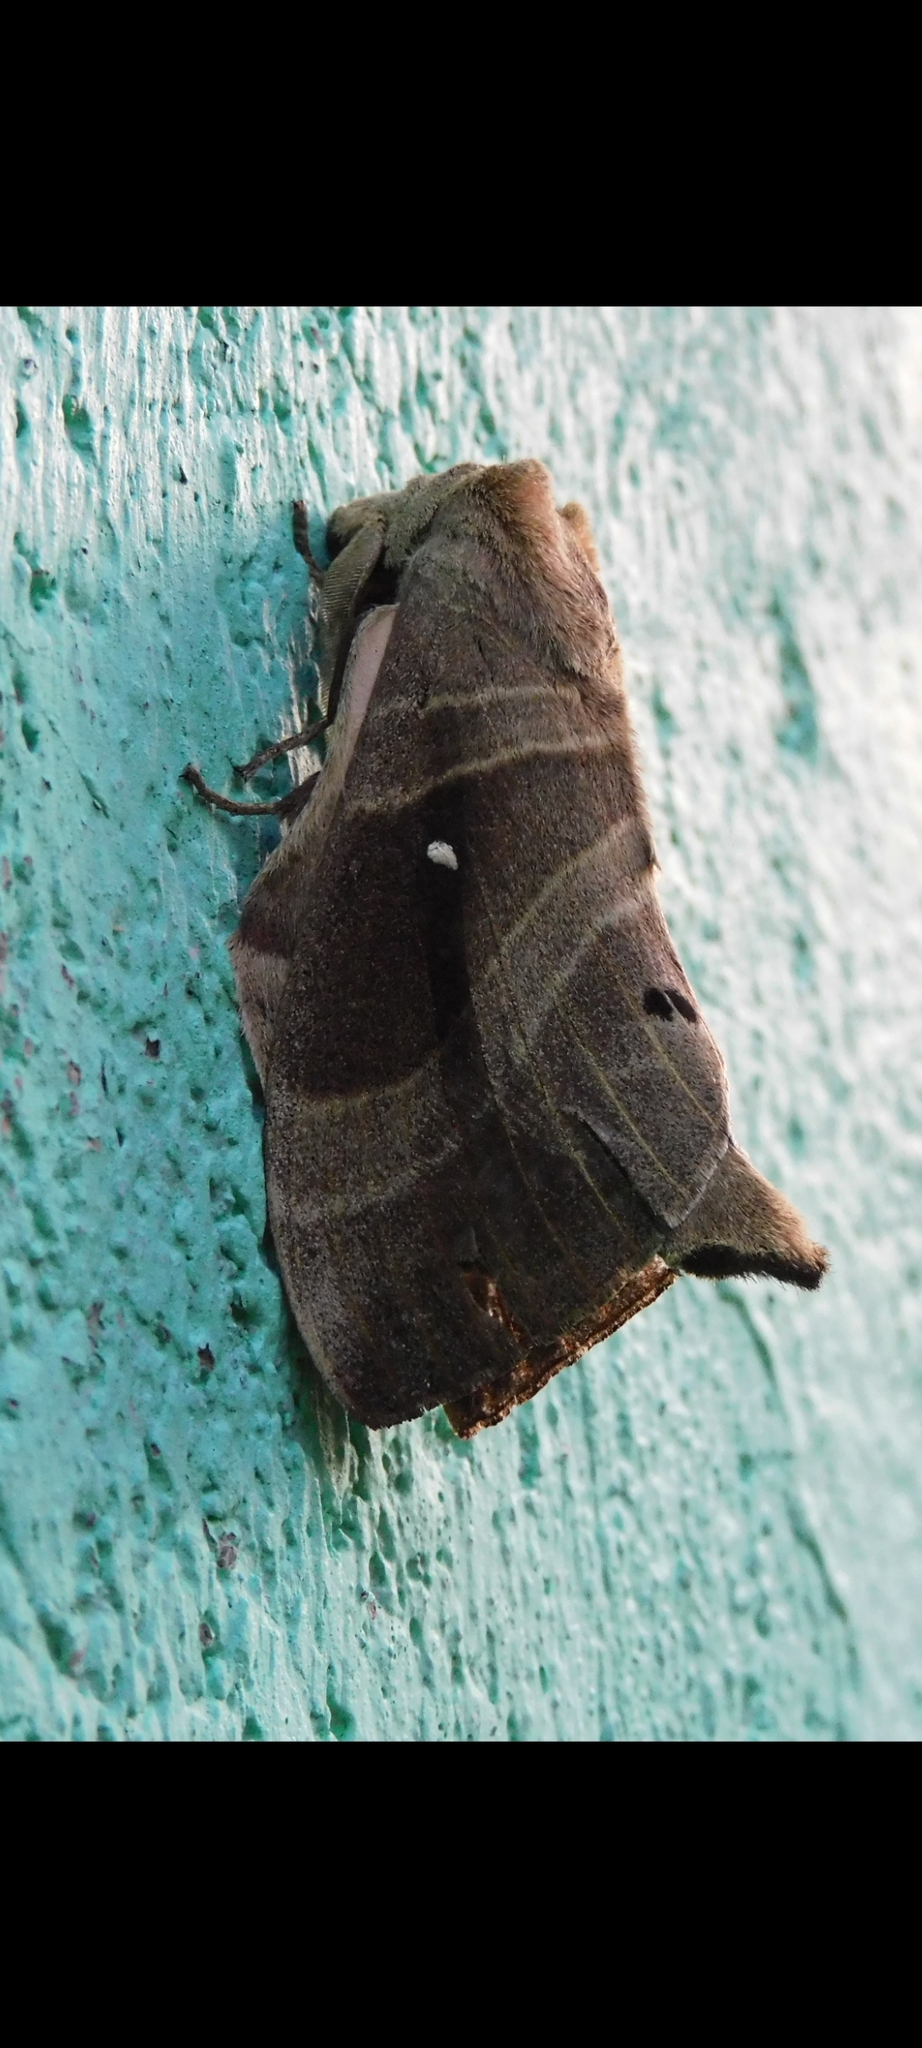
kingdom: Animalia
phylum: Arthropoda
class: Insecta
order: Lepidoptera
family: Lasiocampidae
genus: Lebeda
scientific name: Lebeda nobilis
